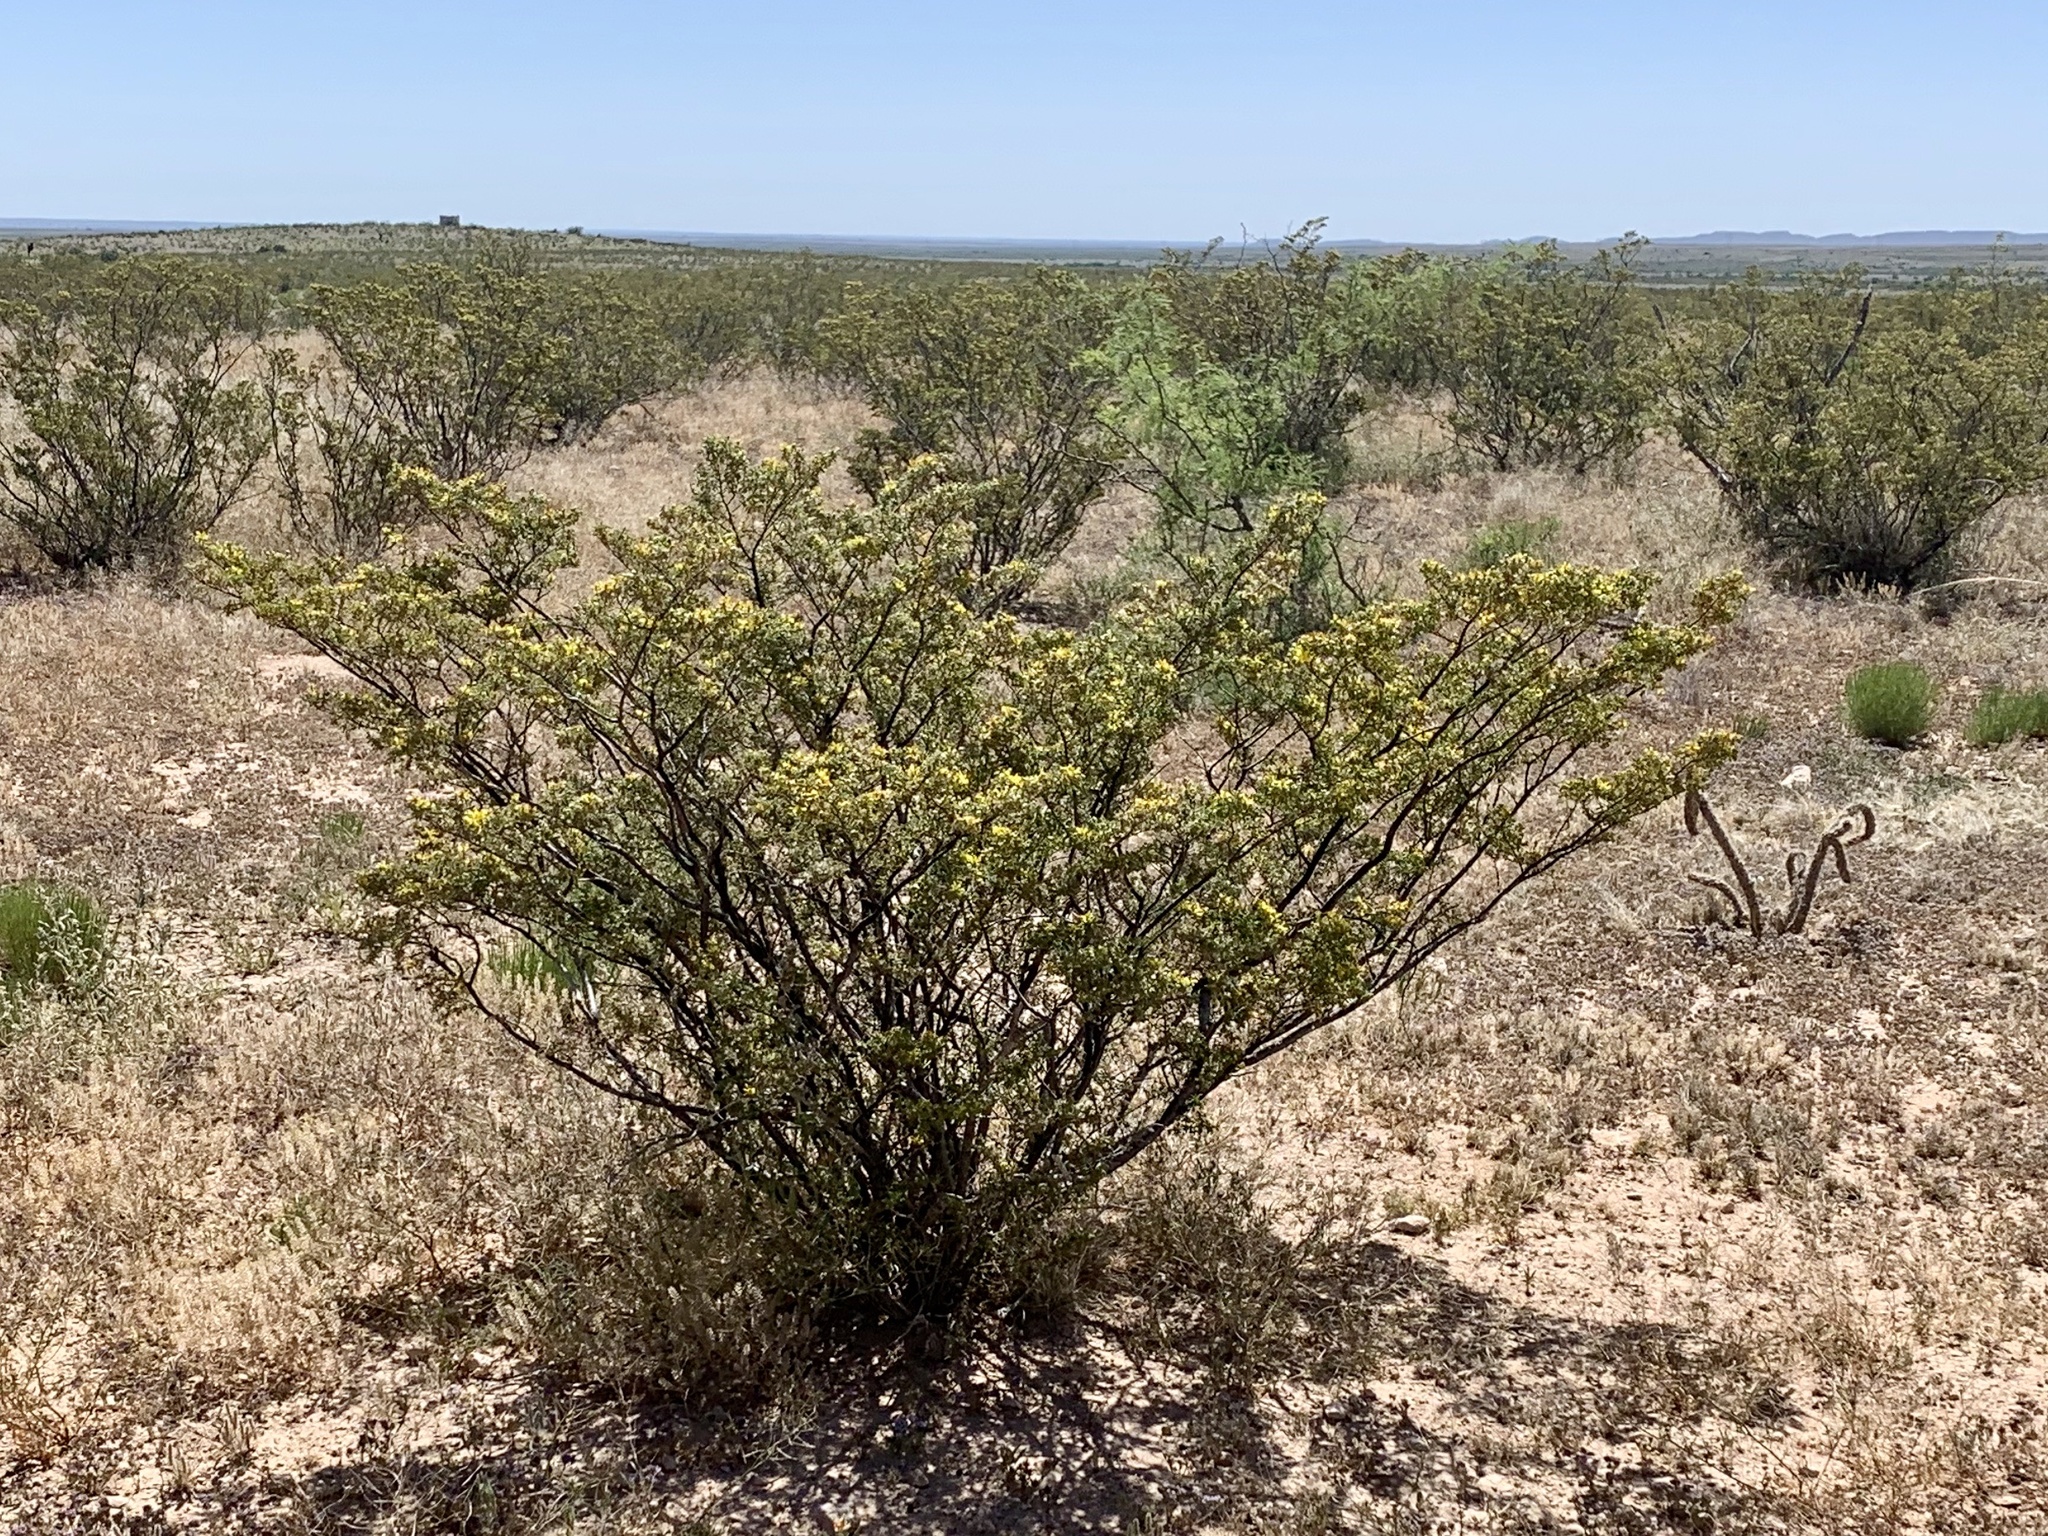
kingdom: Plantae
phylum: Tracheophyta
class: Magnoliopsida
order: Zygophyllales
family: Zygophyllaceae
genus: Larrea
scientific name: Larrea tridentata
